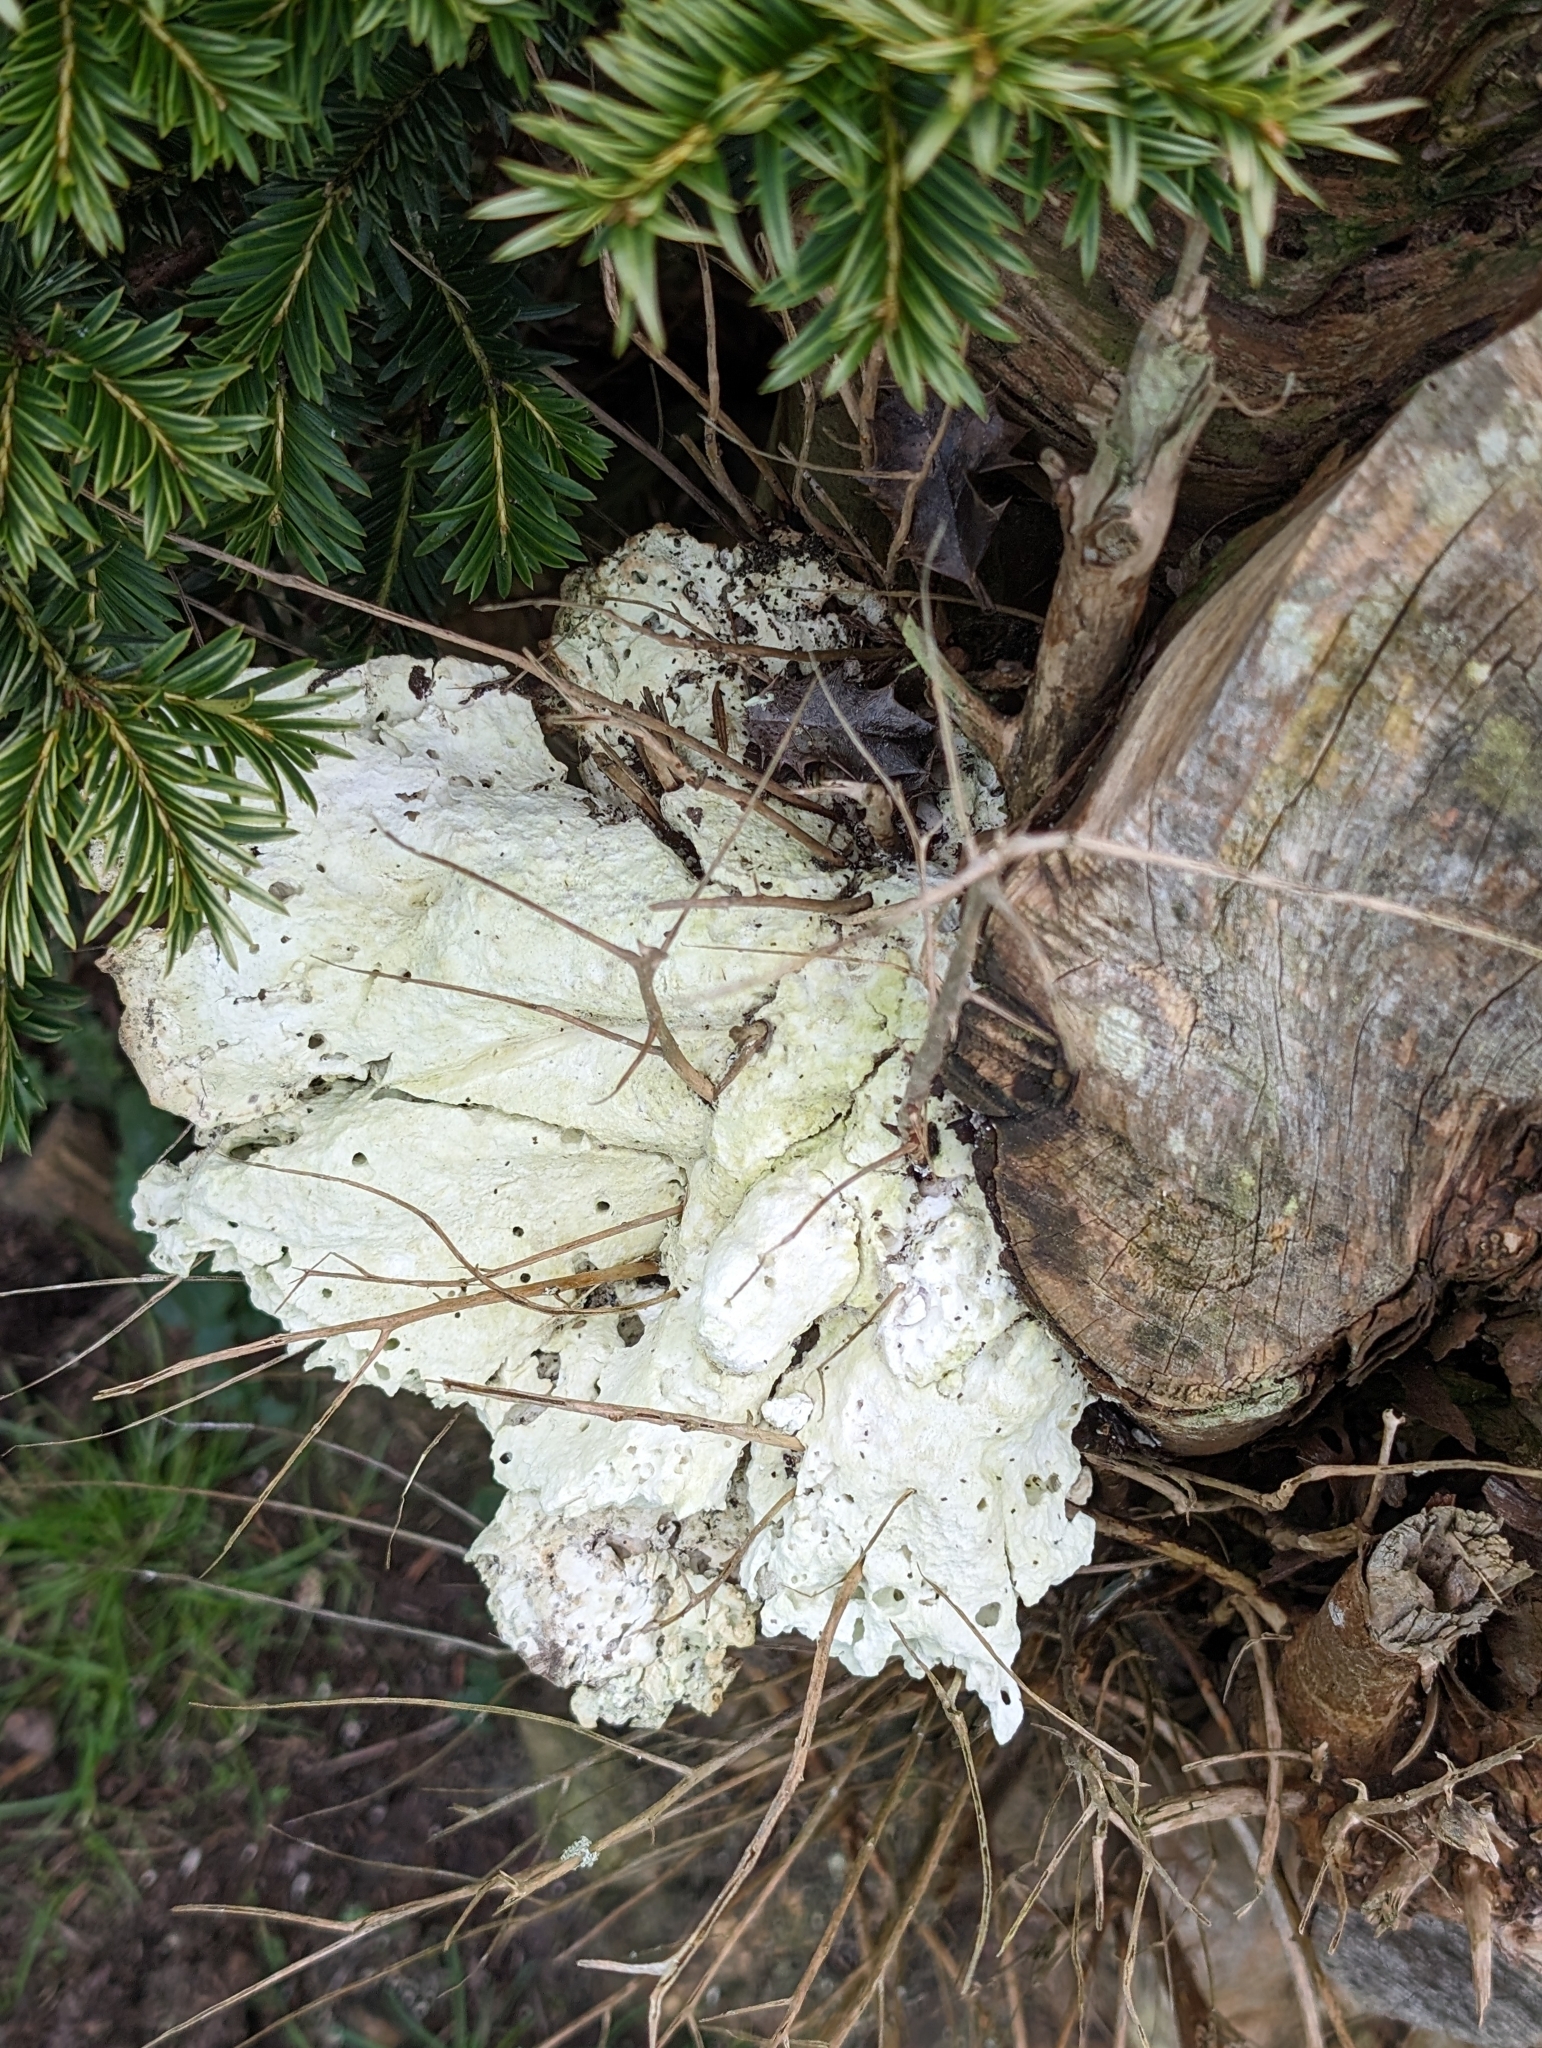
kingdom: Fungi
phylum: Basidiomycota
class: Agaricomycetes
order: Polyporales
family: Laetiporaceae
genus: Laetiporus
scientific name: Laetiporus sulphureus
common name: Chicken of the woods
